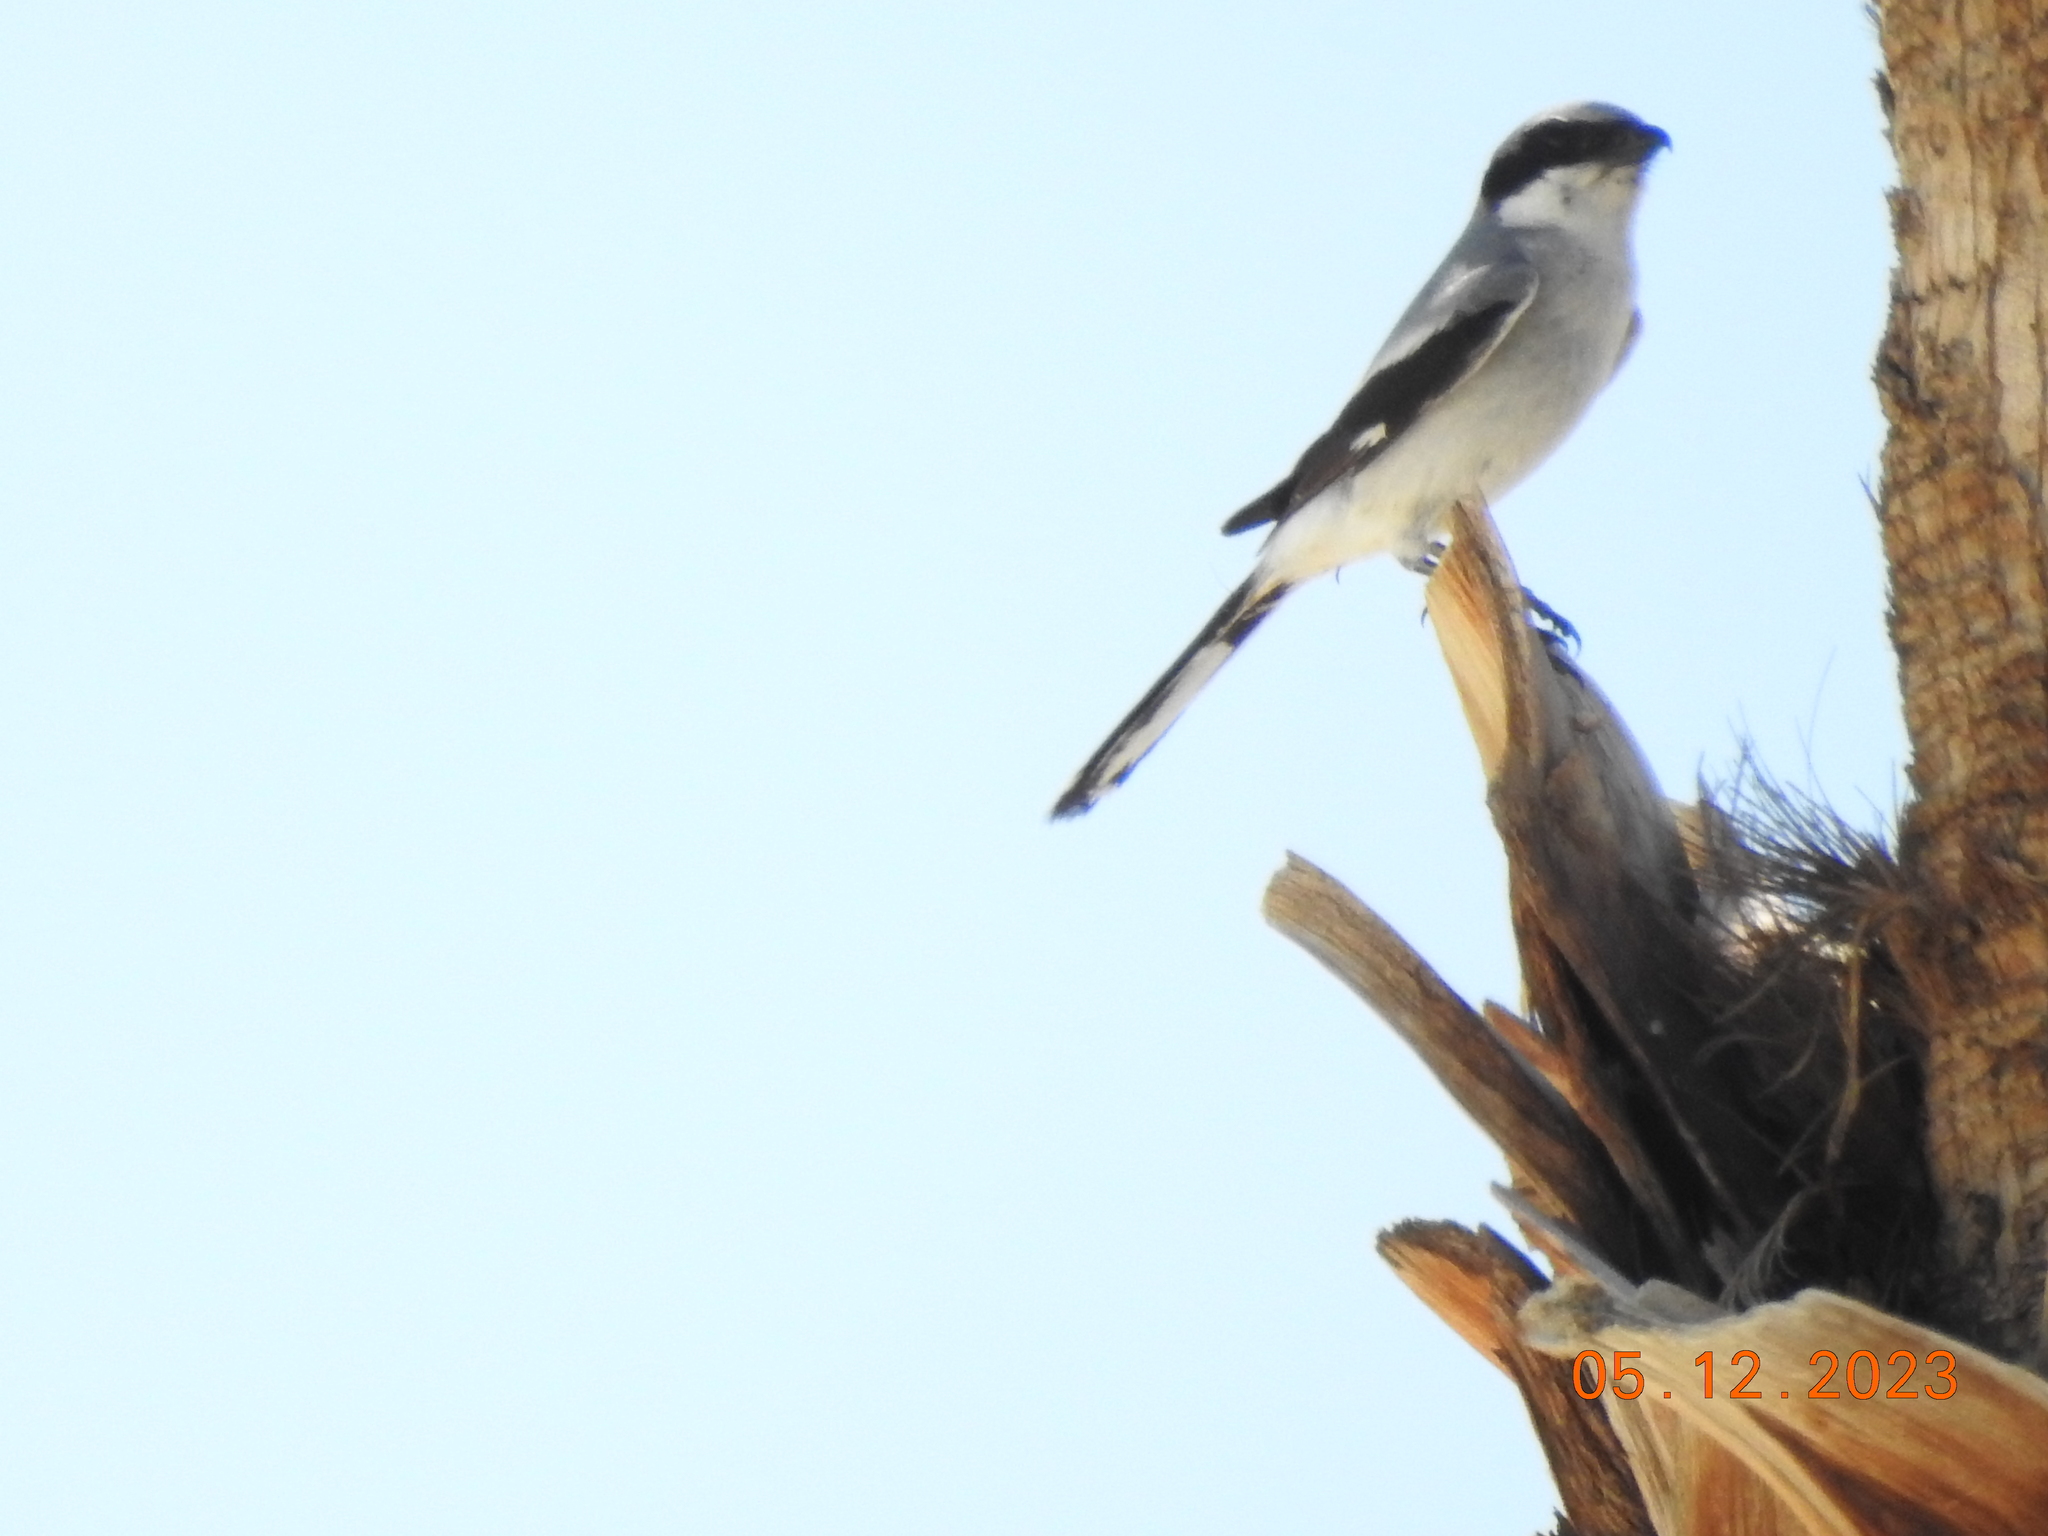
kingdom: Animalia
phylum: Chordata
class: Aves
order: Passeriformes
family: Laniidae
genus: Lanius
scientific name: Lanius ludovicianus
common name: Loggerhead shrike
